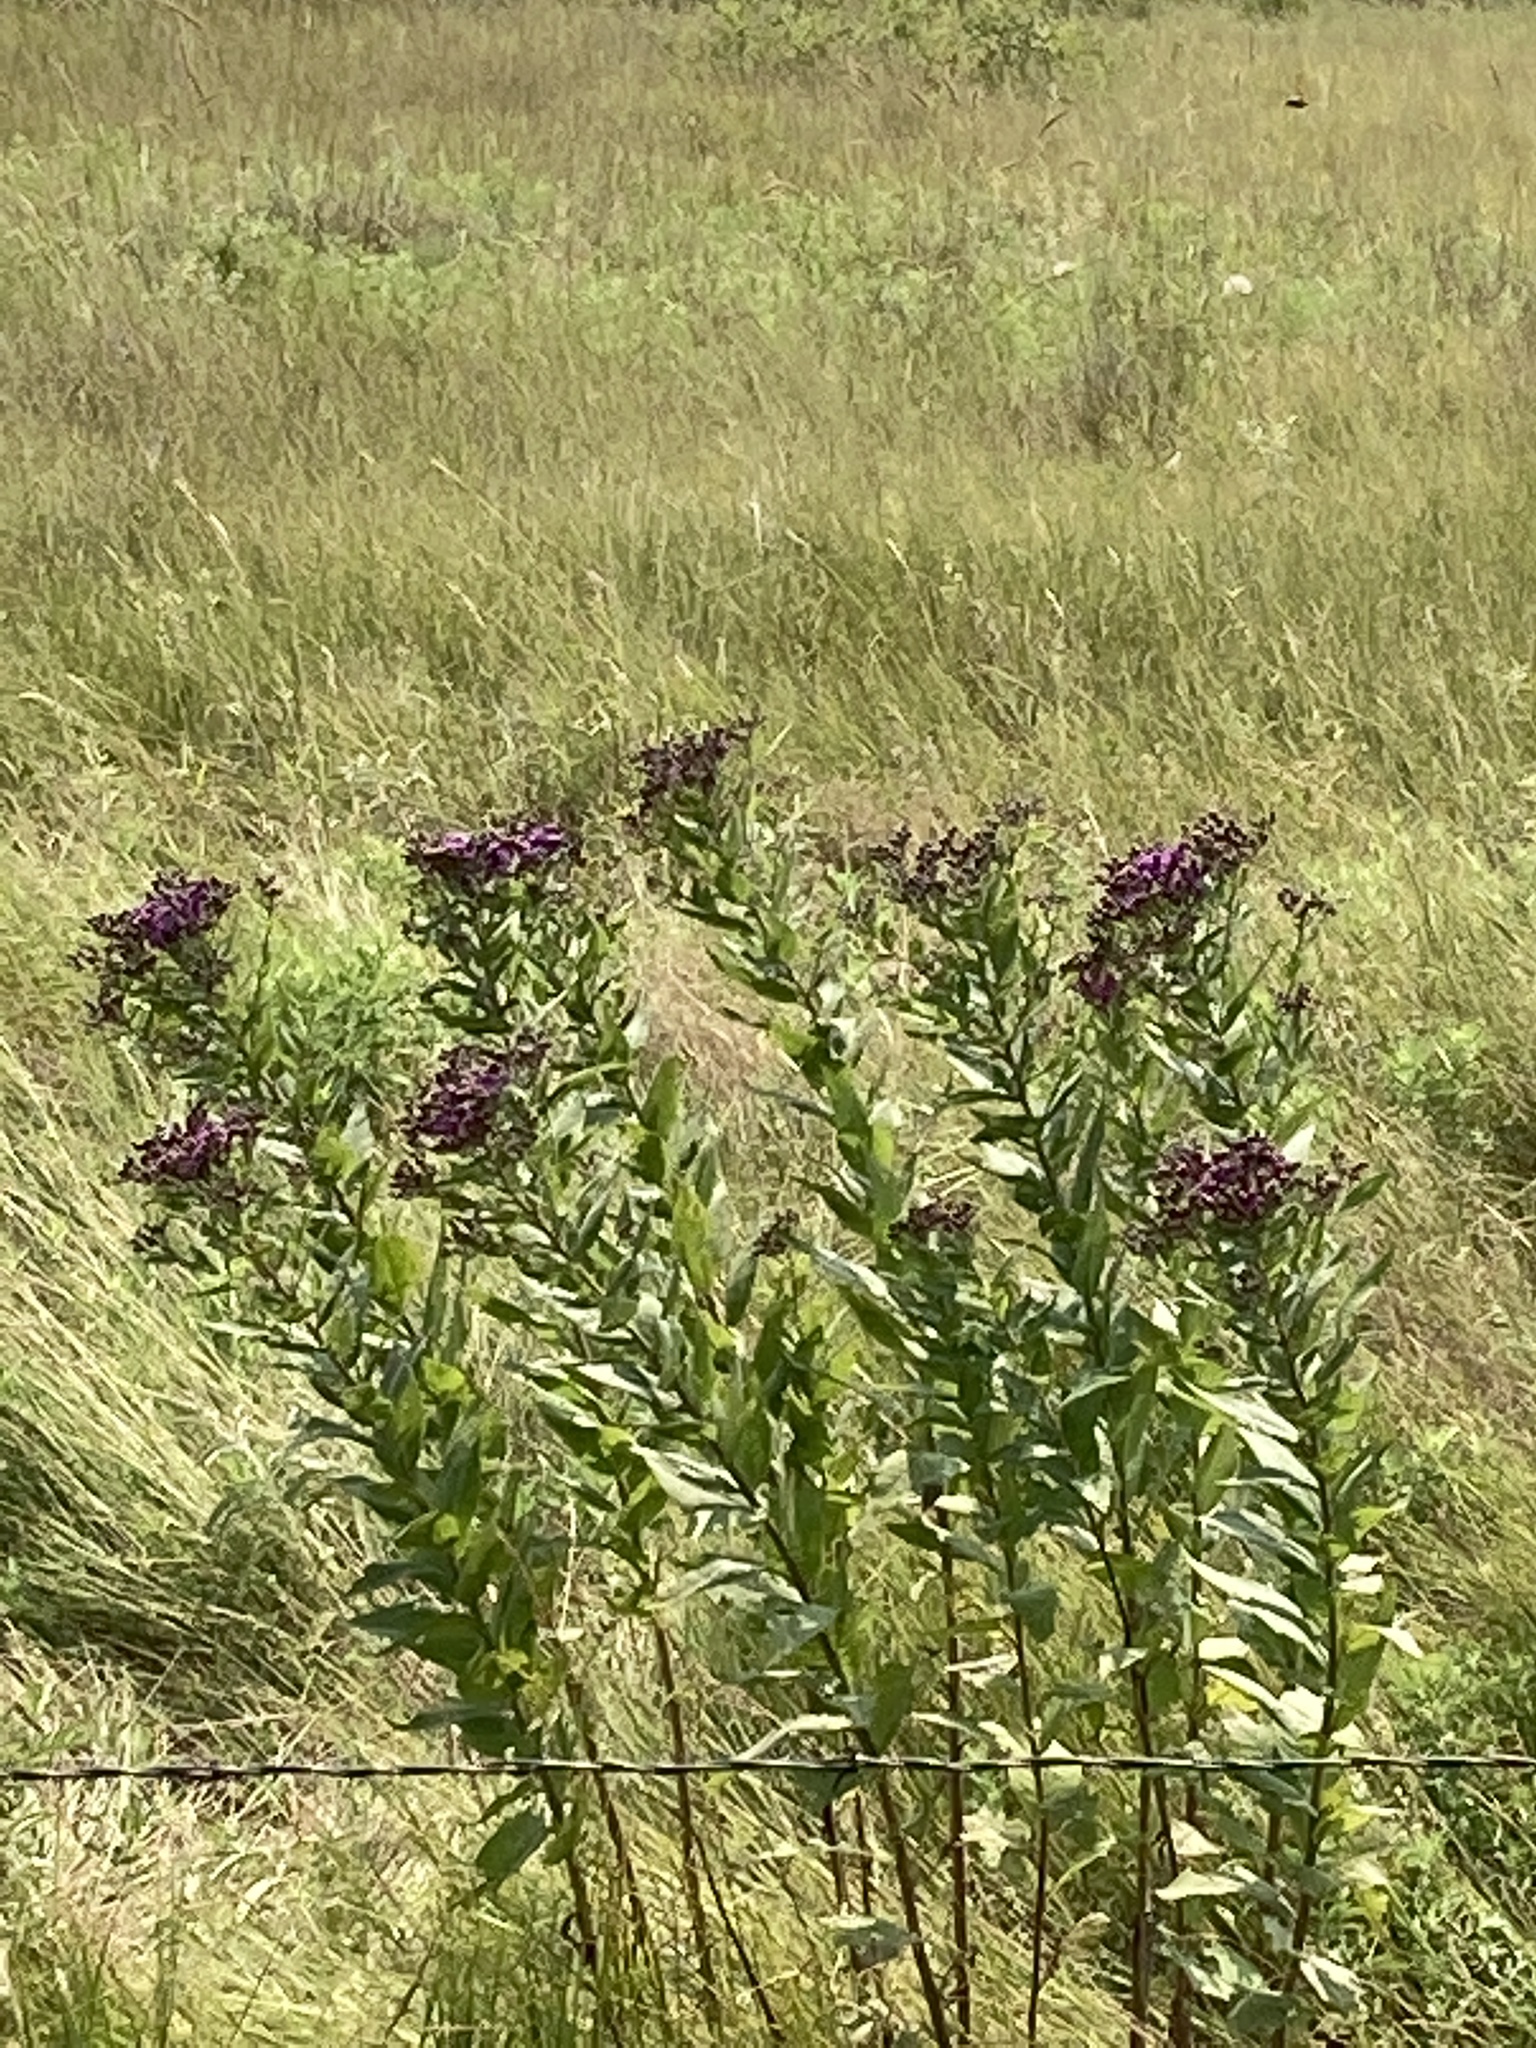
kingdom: Plantae
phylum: Tracheophyta
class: Magnoliopsida
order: Asterales
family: Asteraceae
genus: Vernonia
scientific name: Vernonia baldwinii
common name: Western ironweed
